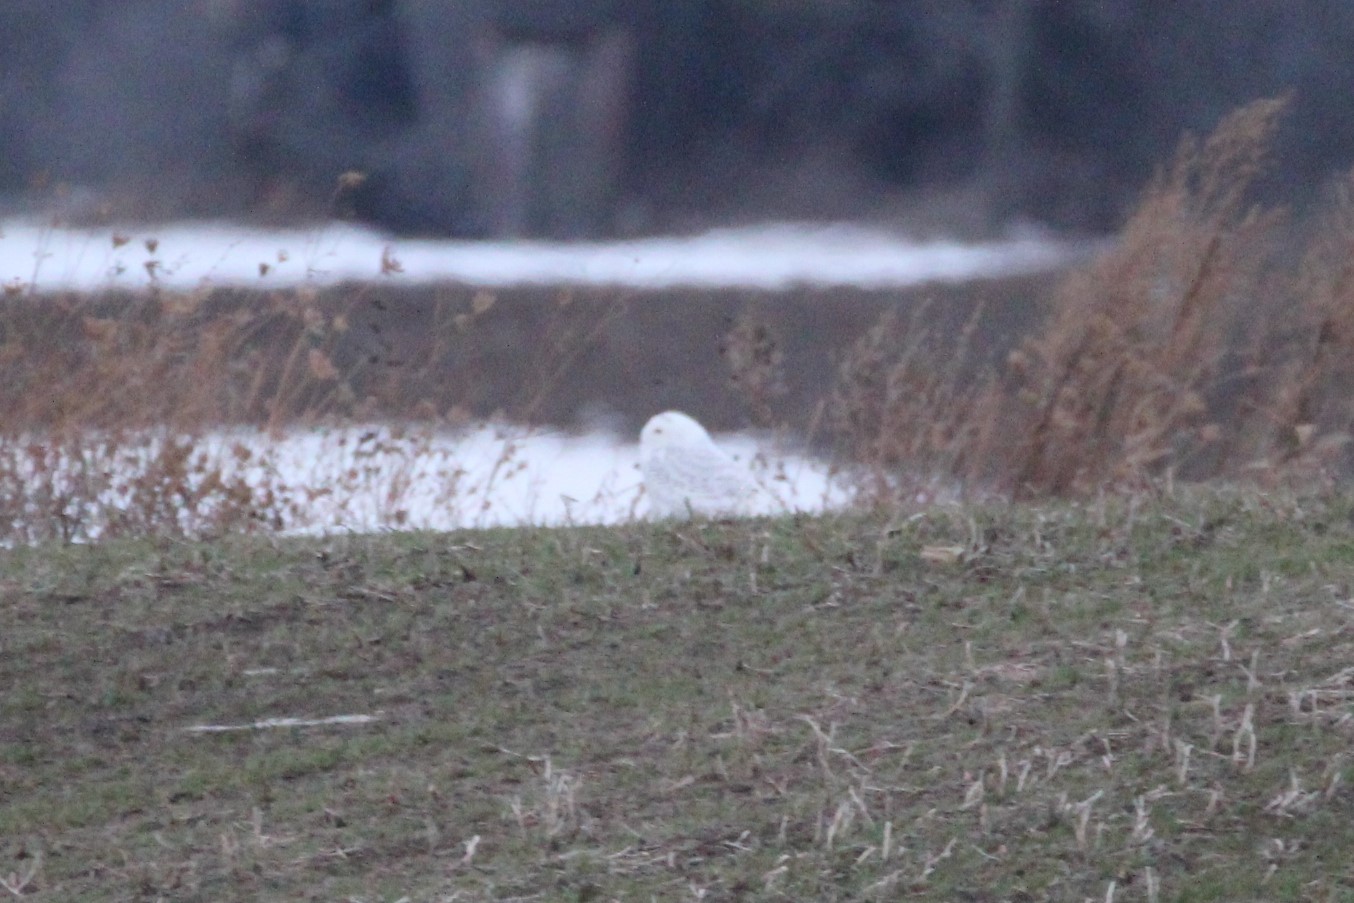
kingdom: Animalia
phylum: Chordata
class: Aves
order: Strigiformes
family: Strigidae
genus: Bubo
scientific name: Bubo scandiacus
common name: Snowy owl
